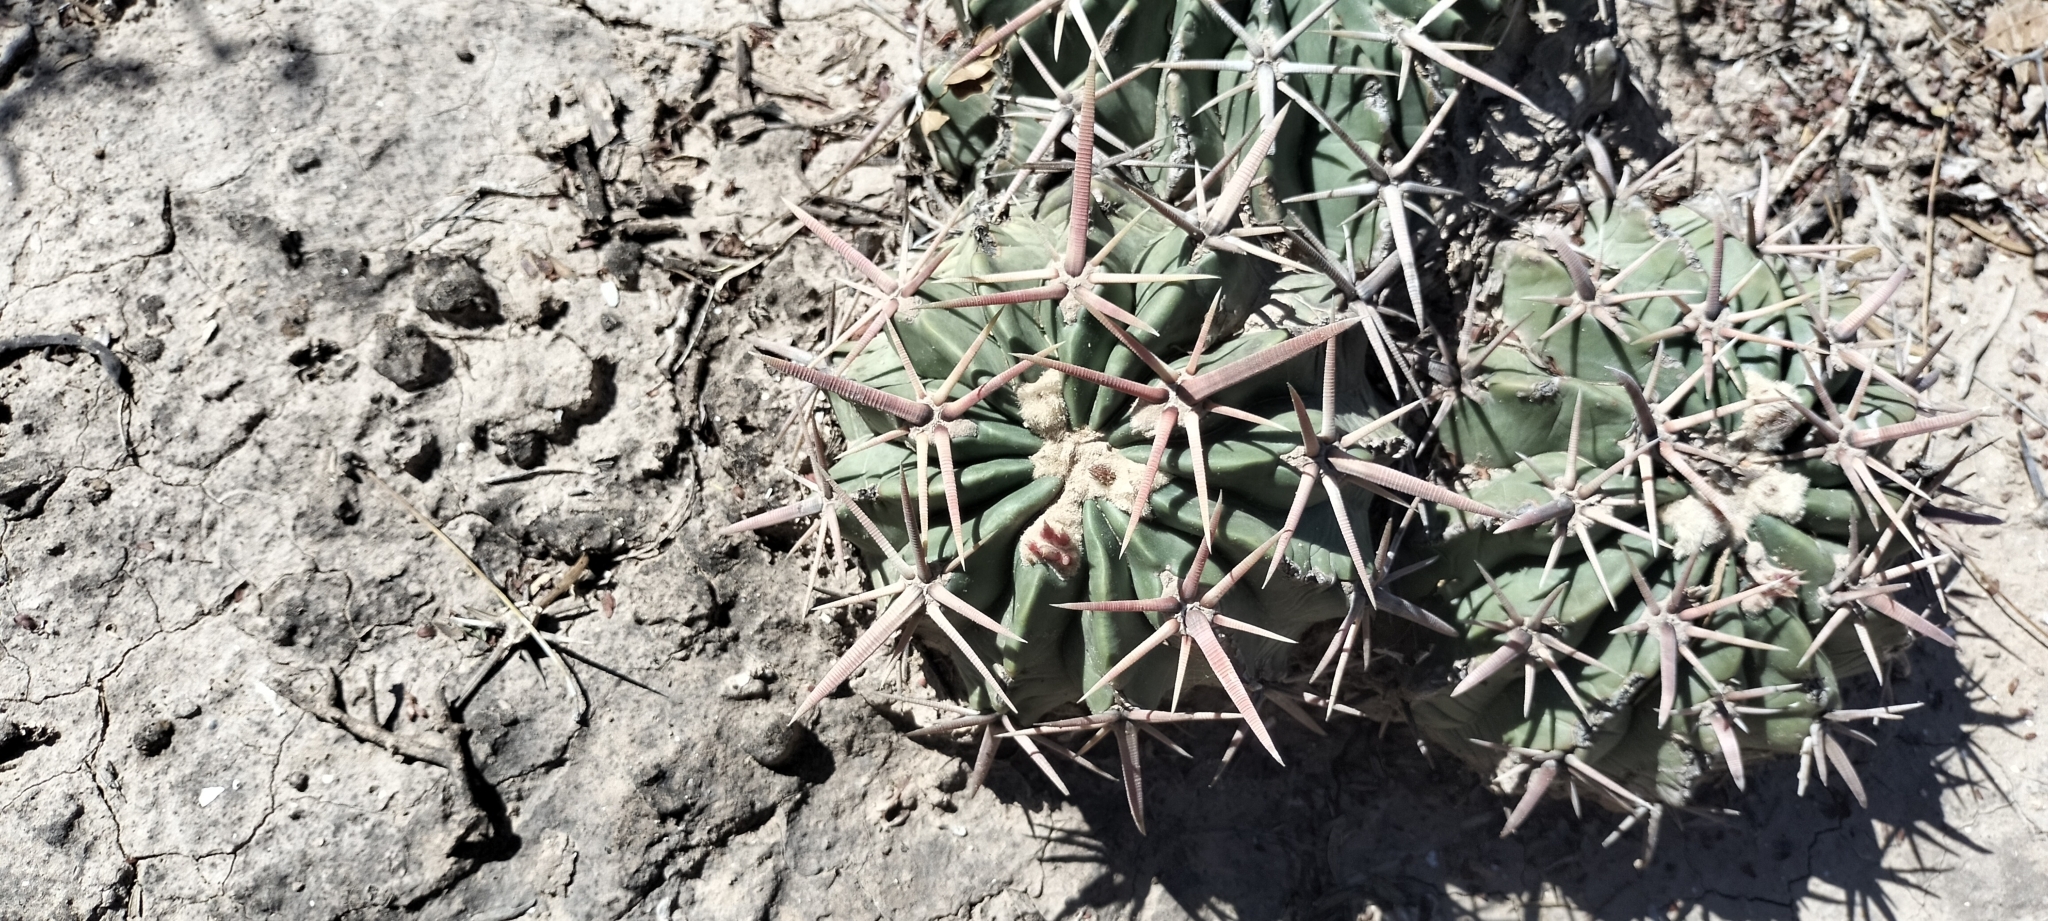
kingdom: Plantae
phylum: Tracheophyta
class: Magnoliopsida
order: Caryophyllales
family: Cactaceae
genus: Echinocactus
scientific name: Echinocactus texensis
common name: Devil's pincushion
